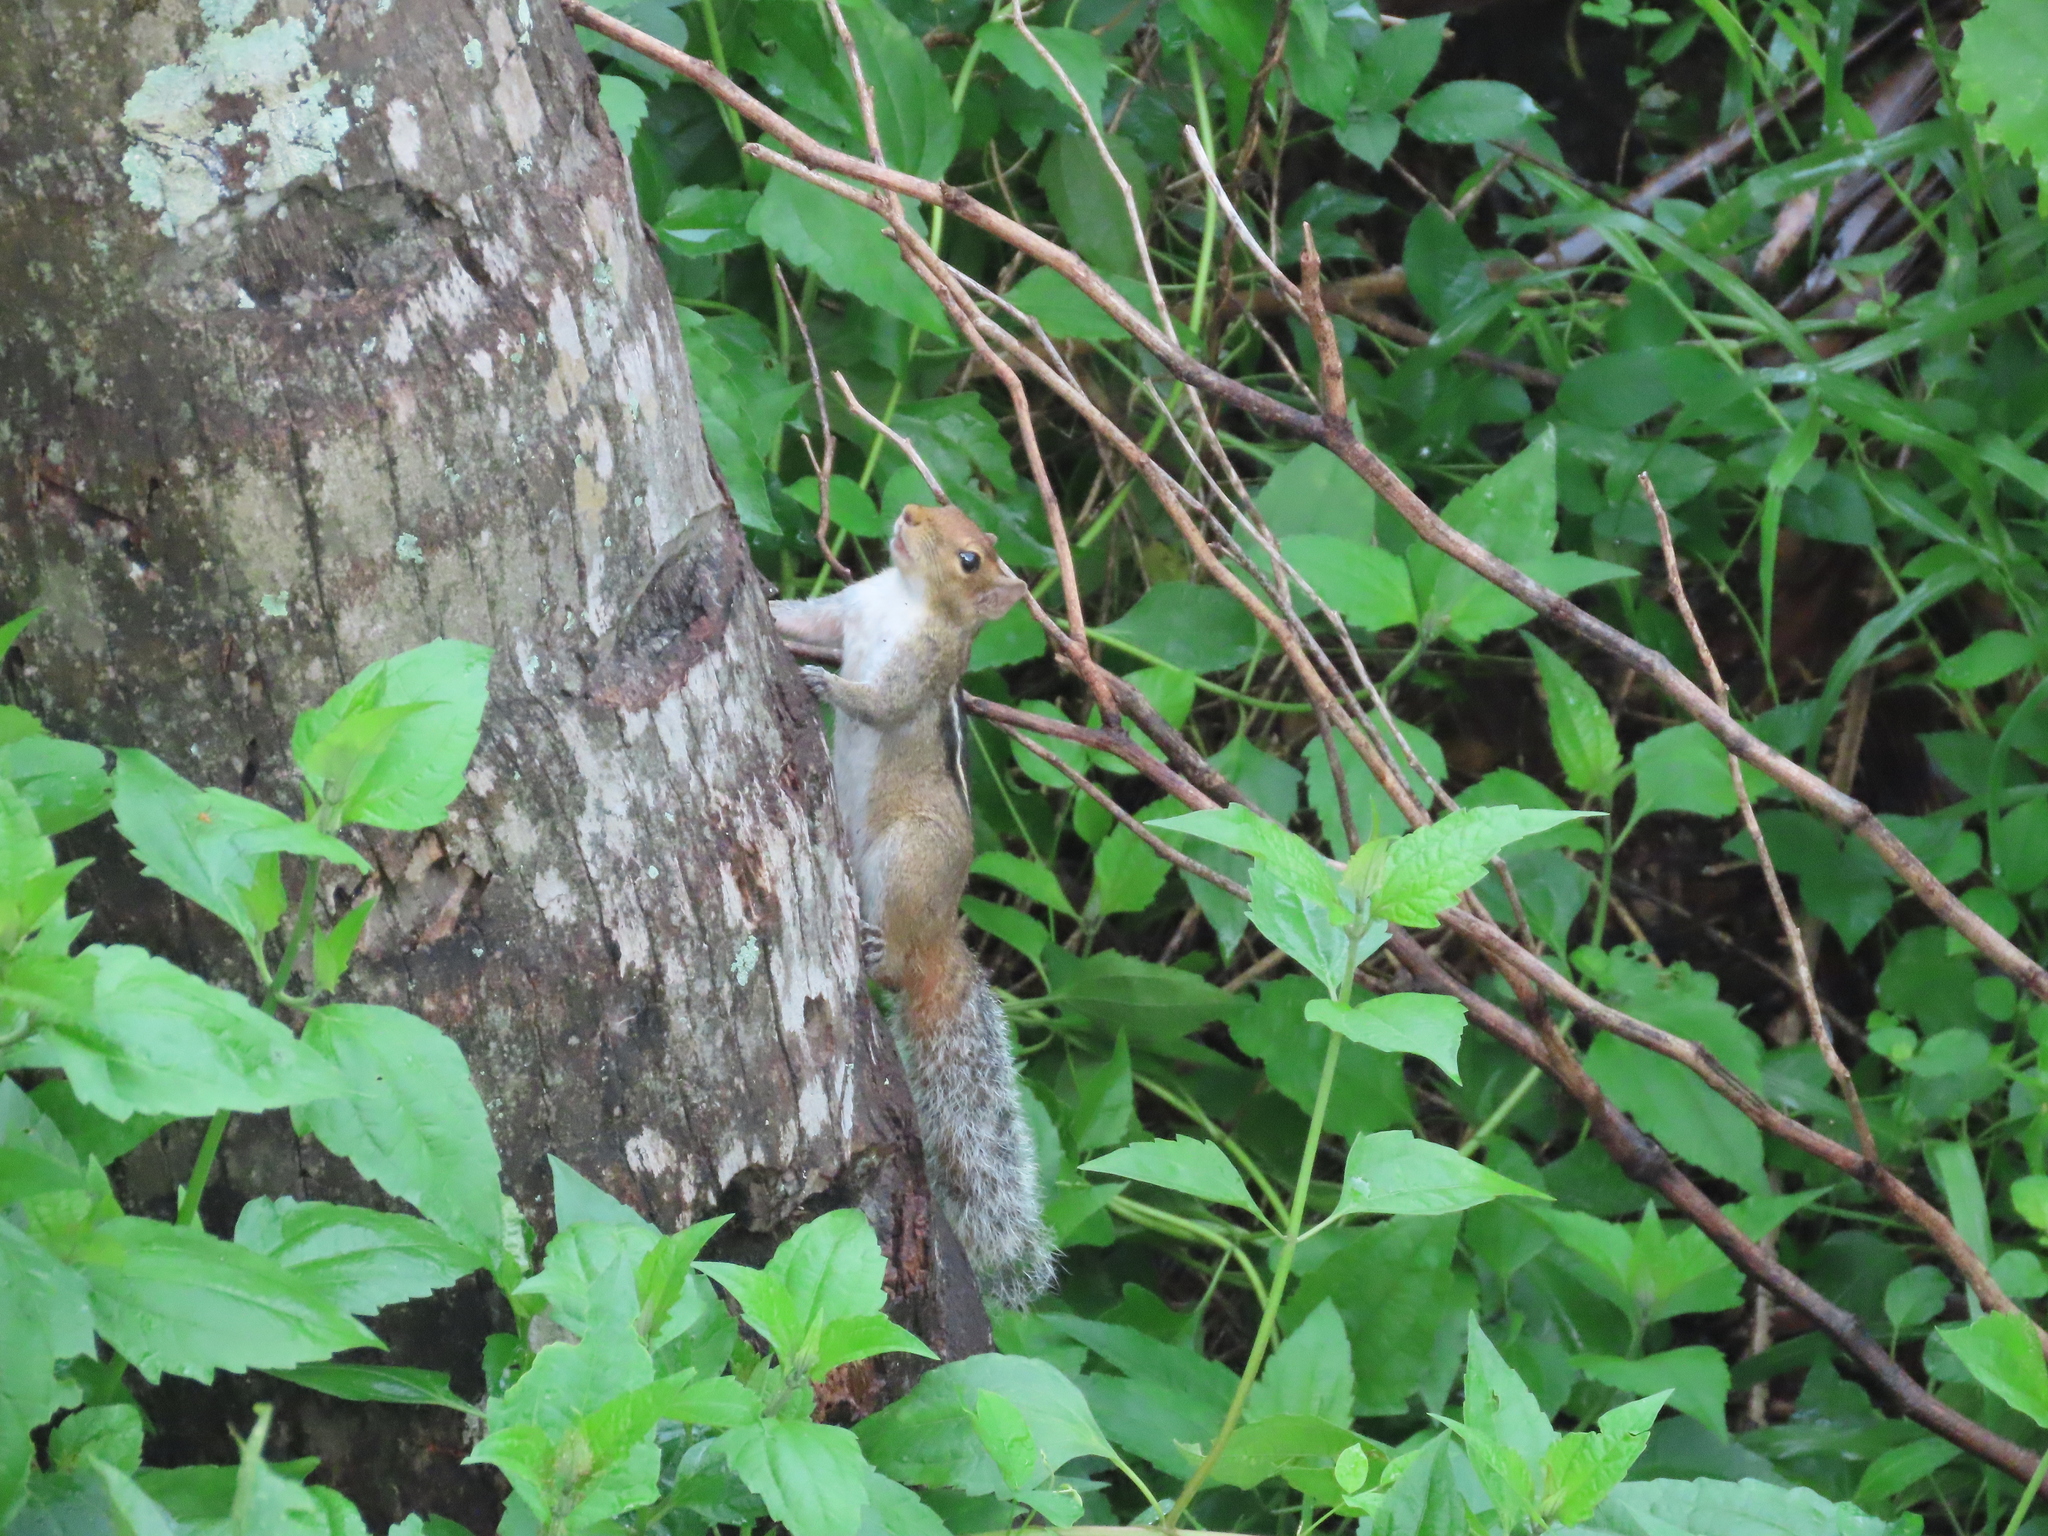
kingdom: Animalia
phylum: Chordata
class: Mammalia
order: Rodentia
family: Sciuridae
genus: Funambulus
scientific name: Funambulus tristriatus
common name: Jungle palm squirrel
